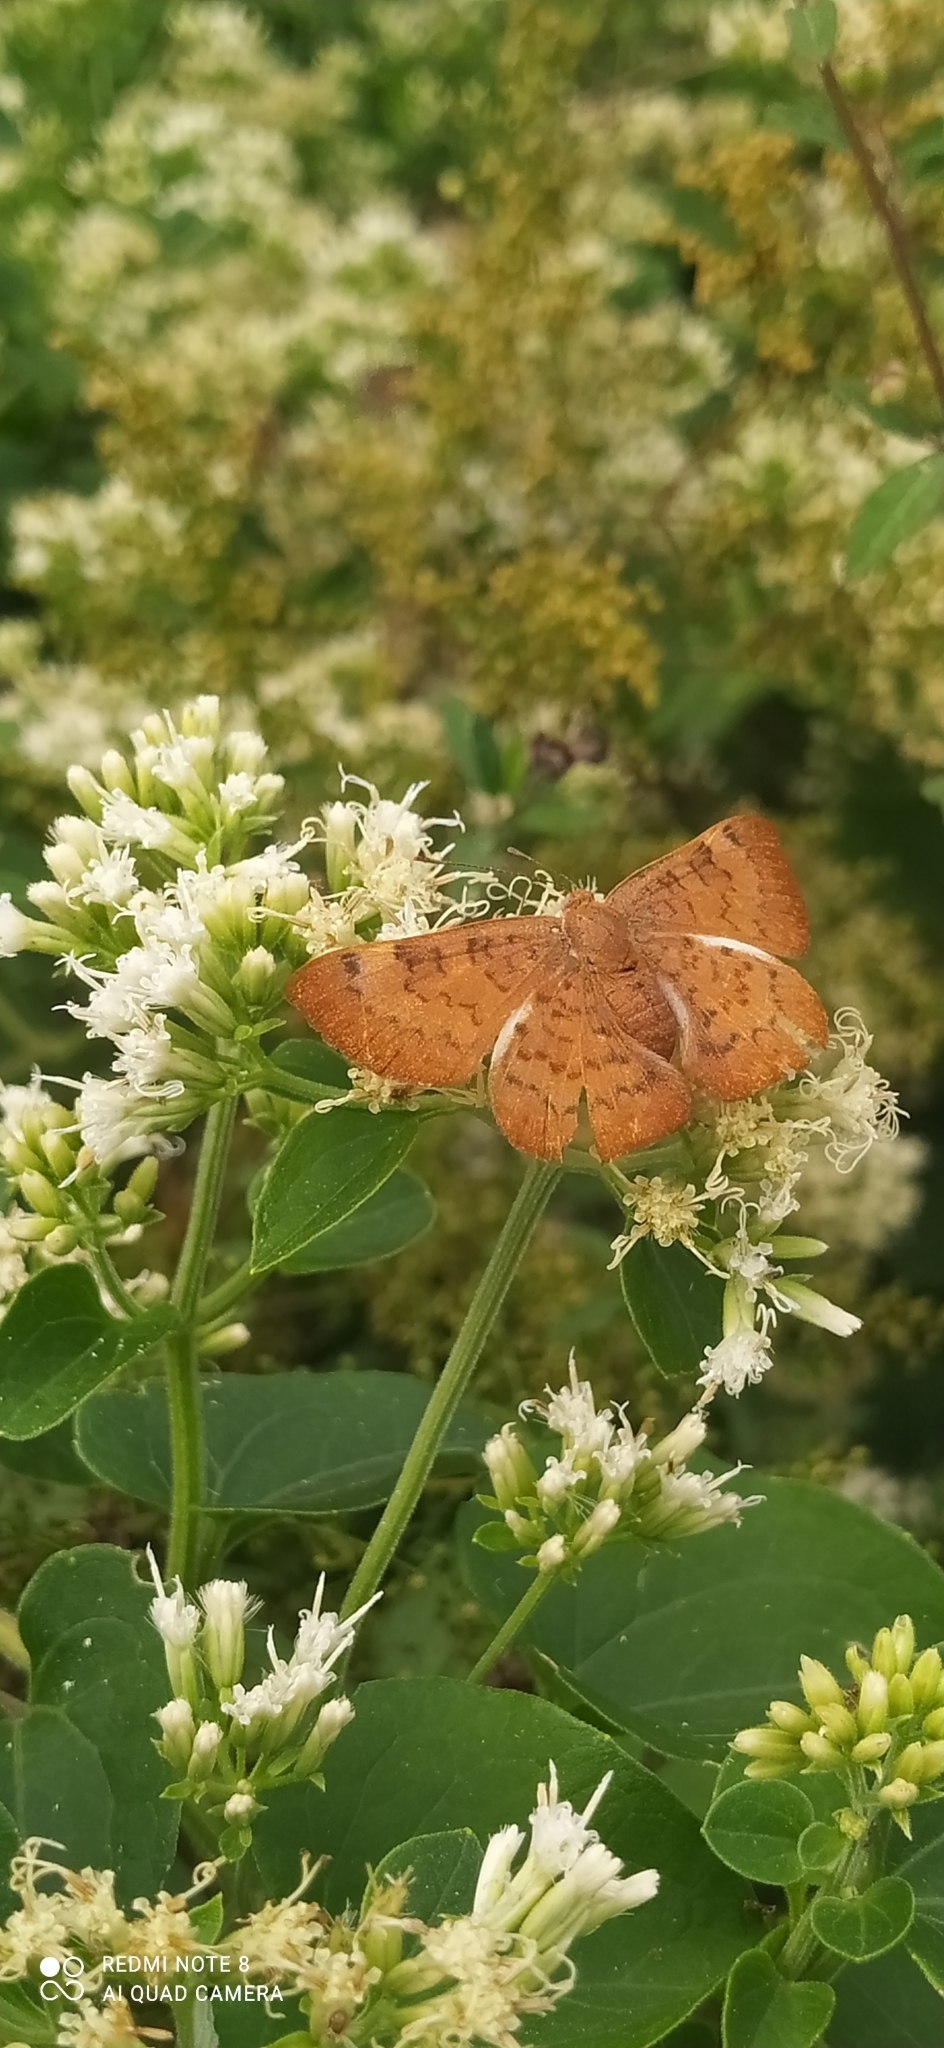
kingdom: Animalia
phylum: Arthropoda
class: Insecta
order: Lepidoptera
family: Lycaenidae
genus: Emesis
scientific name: Emesis russula
